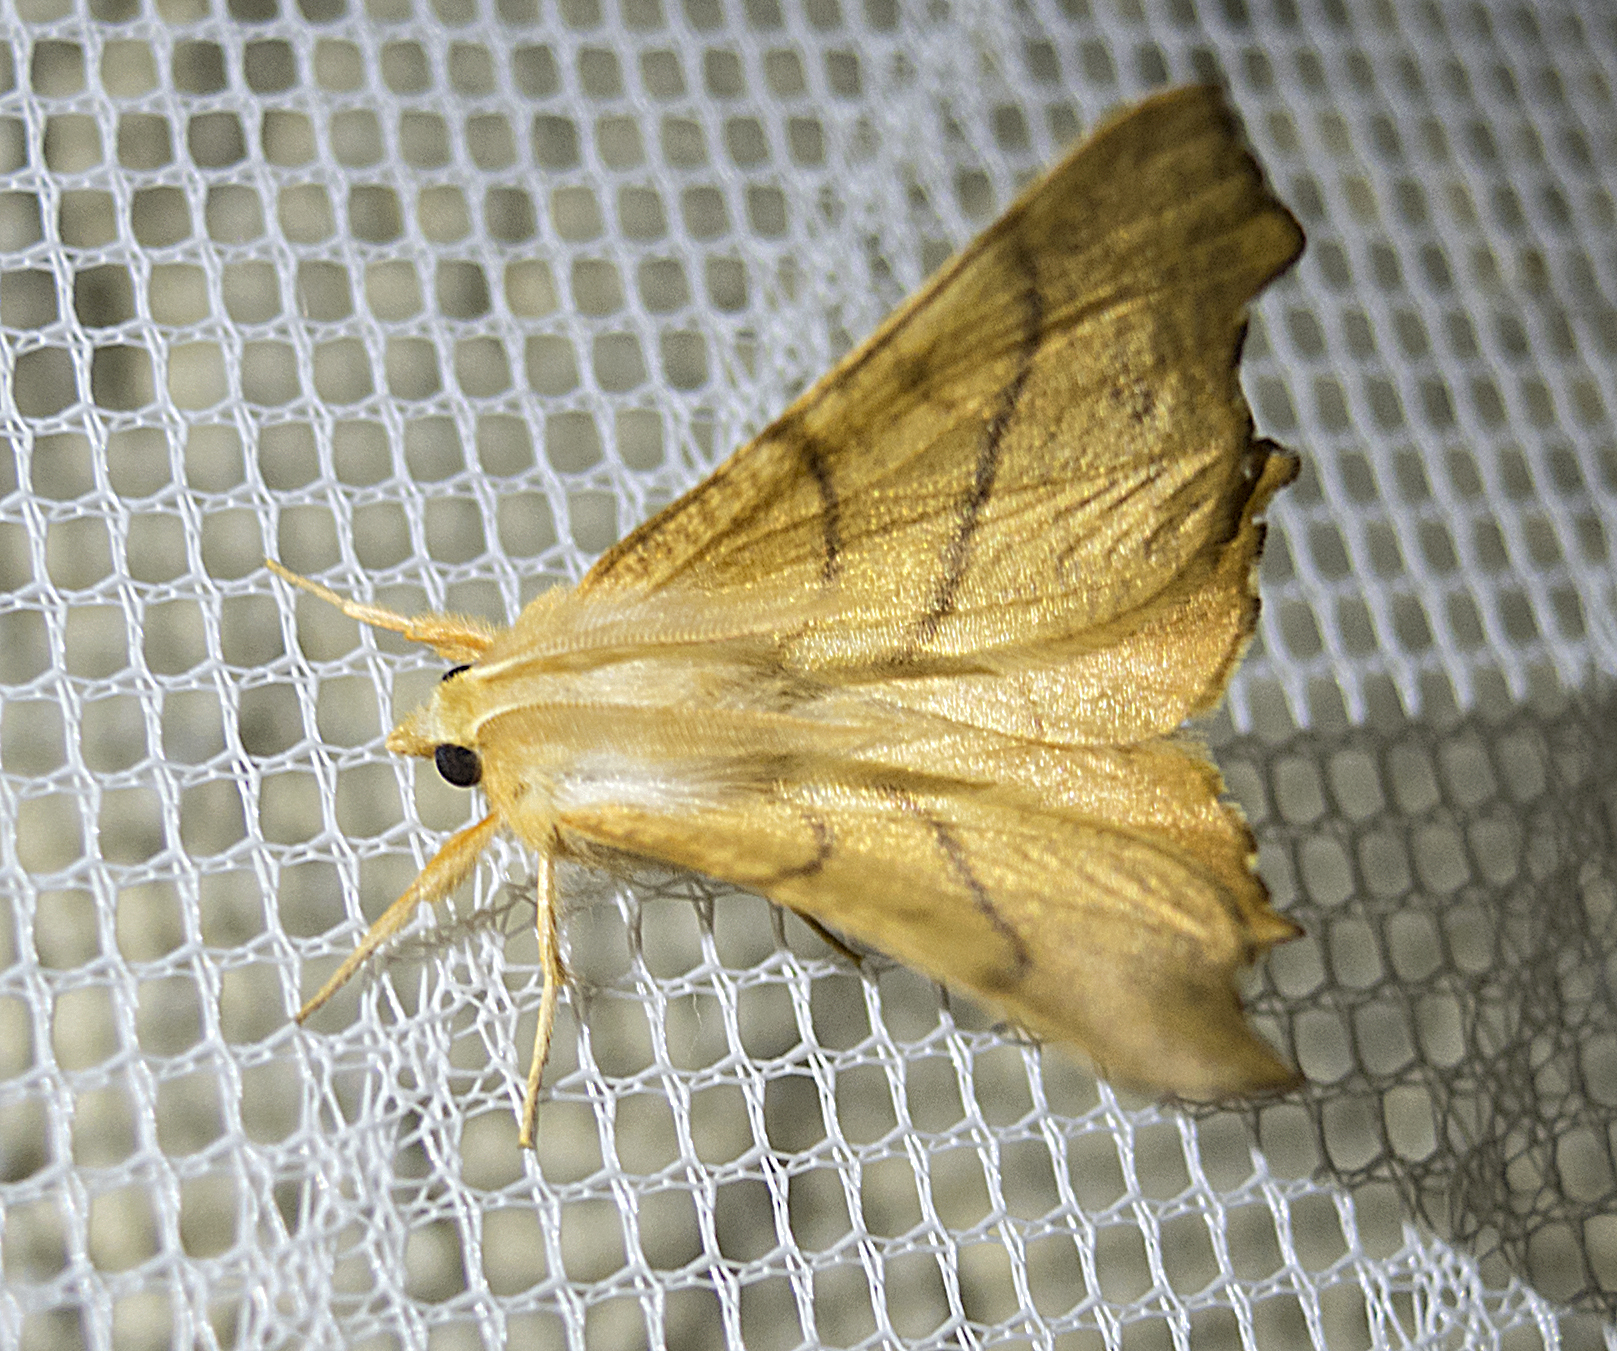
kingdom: Animalia
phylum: Arthropoda
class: Insecta
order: Lepidoptera
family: Geometridae
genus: Ennomos
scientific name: Ennomos fuscantaria
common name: Dusky thorn
